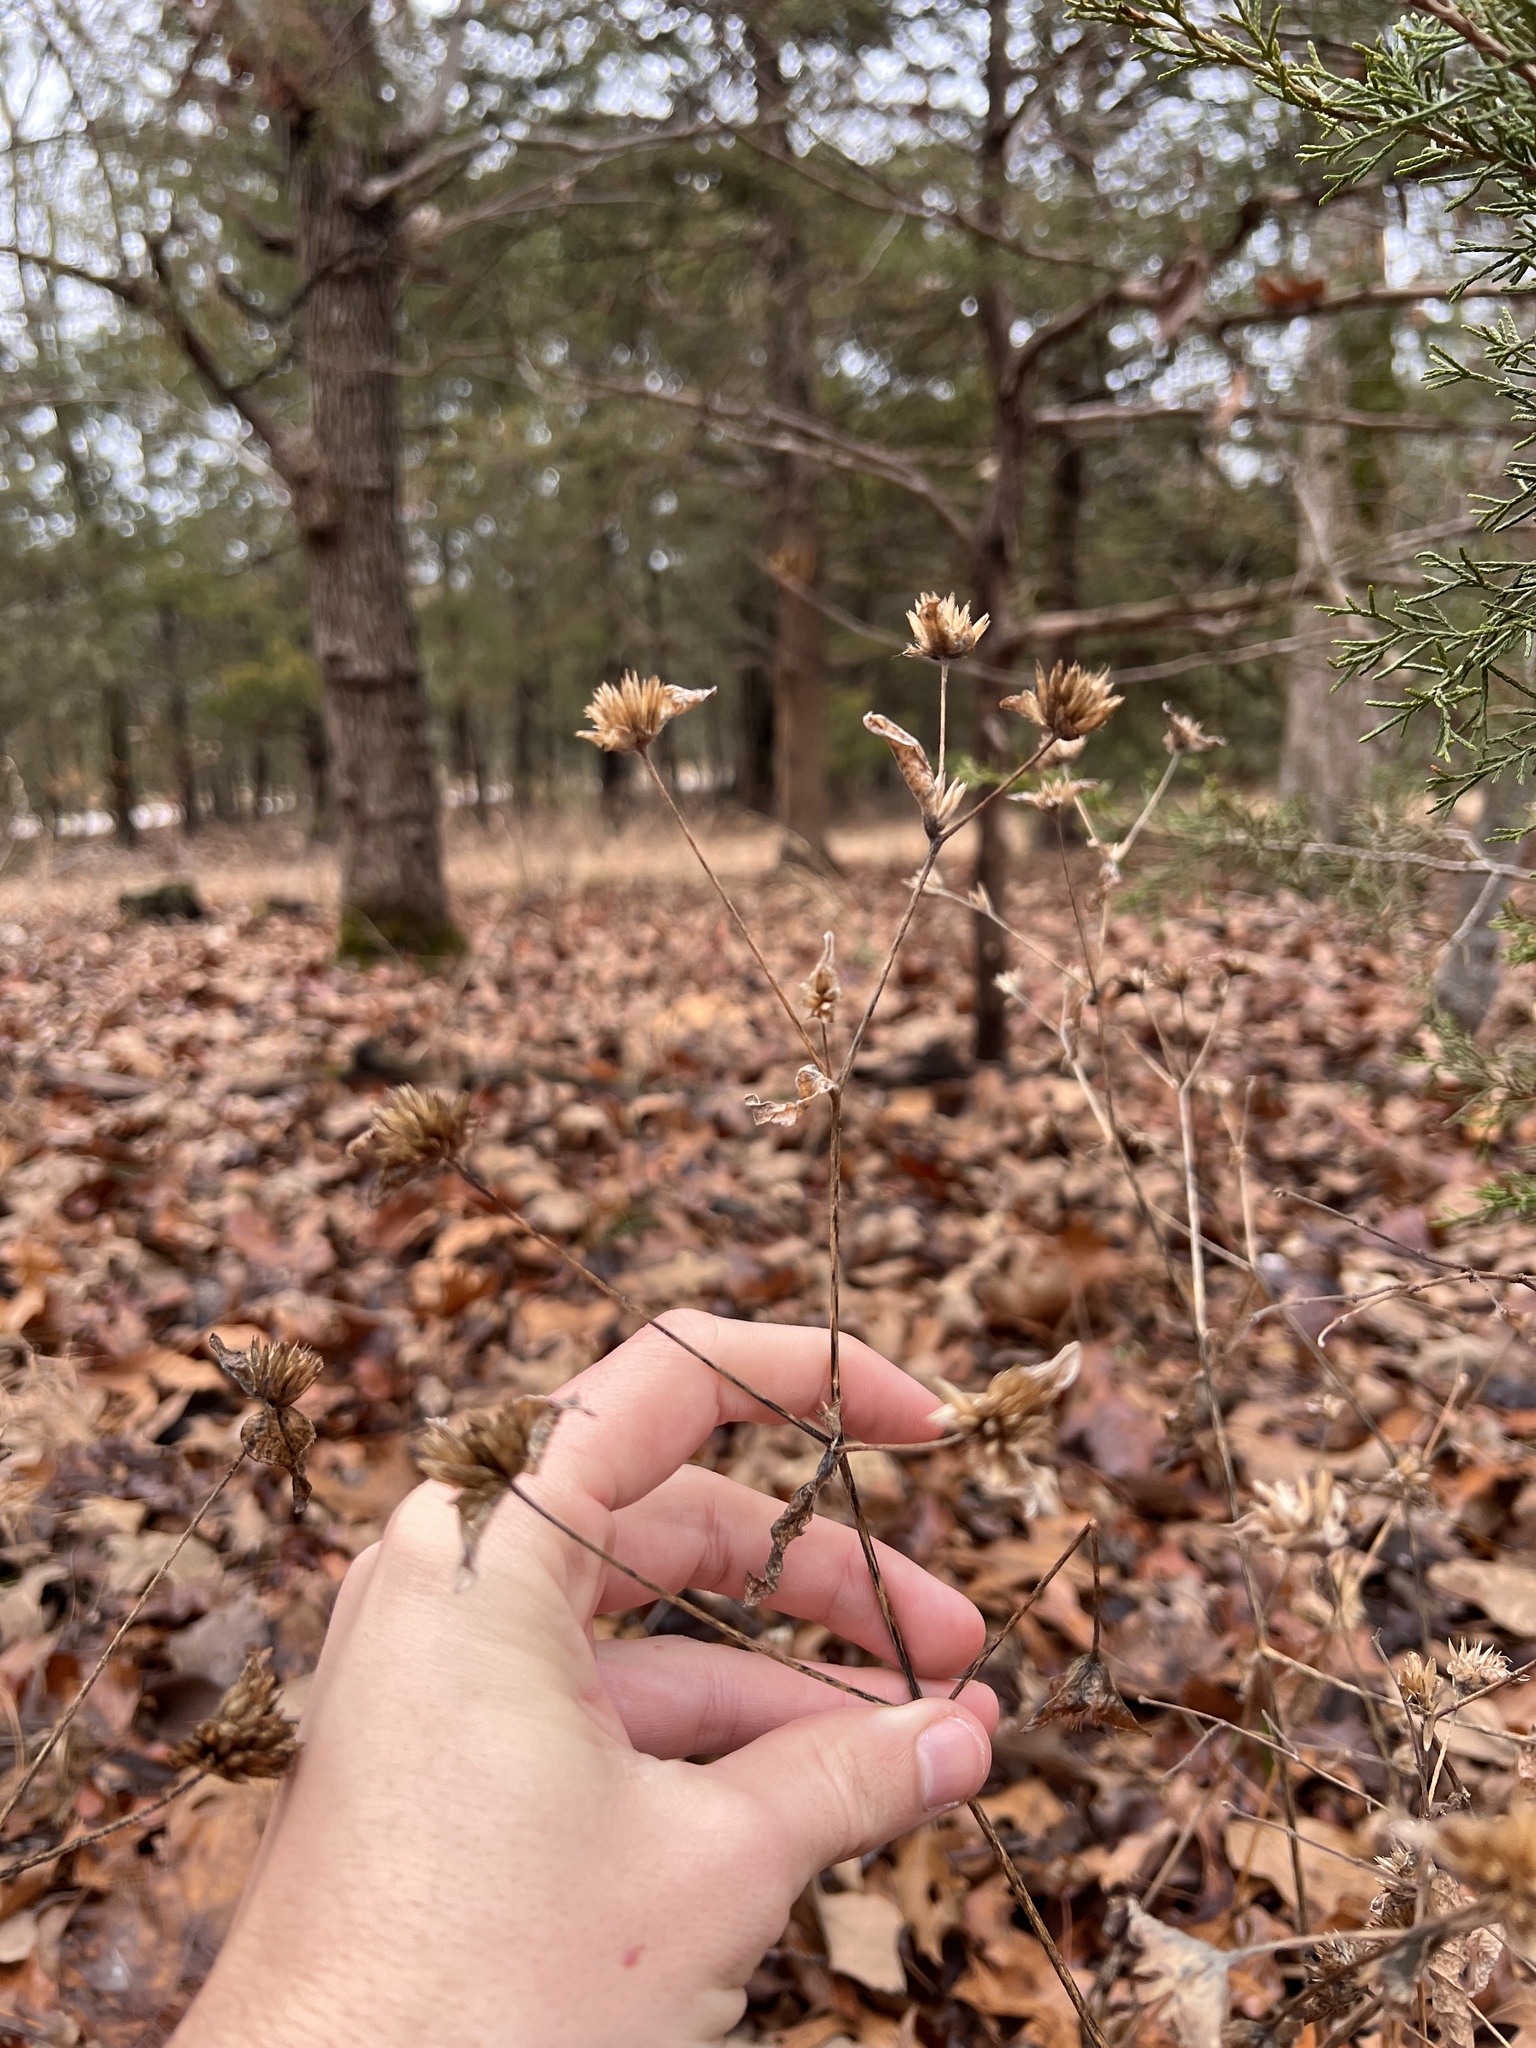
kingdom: Plantae
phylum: Tracheophyta
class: Magnoliopsida
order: Asterales
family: Asteraceae
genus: Elephantopus
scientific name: Elephantopus carolinianus
